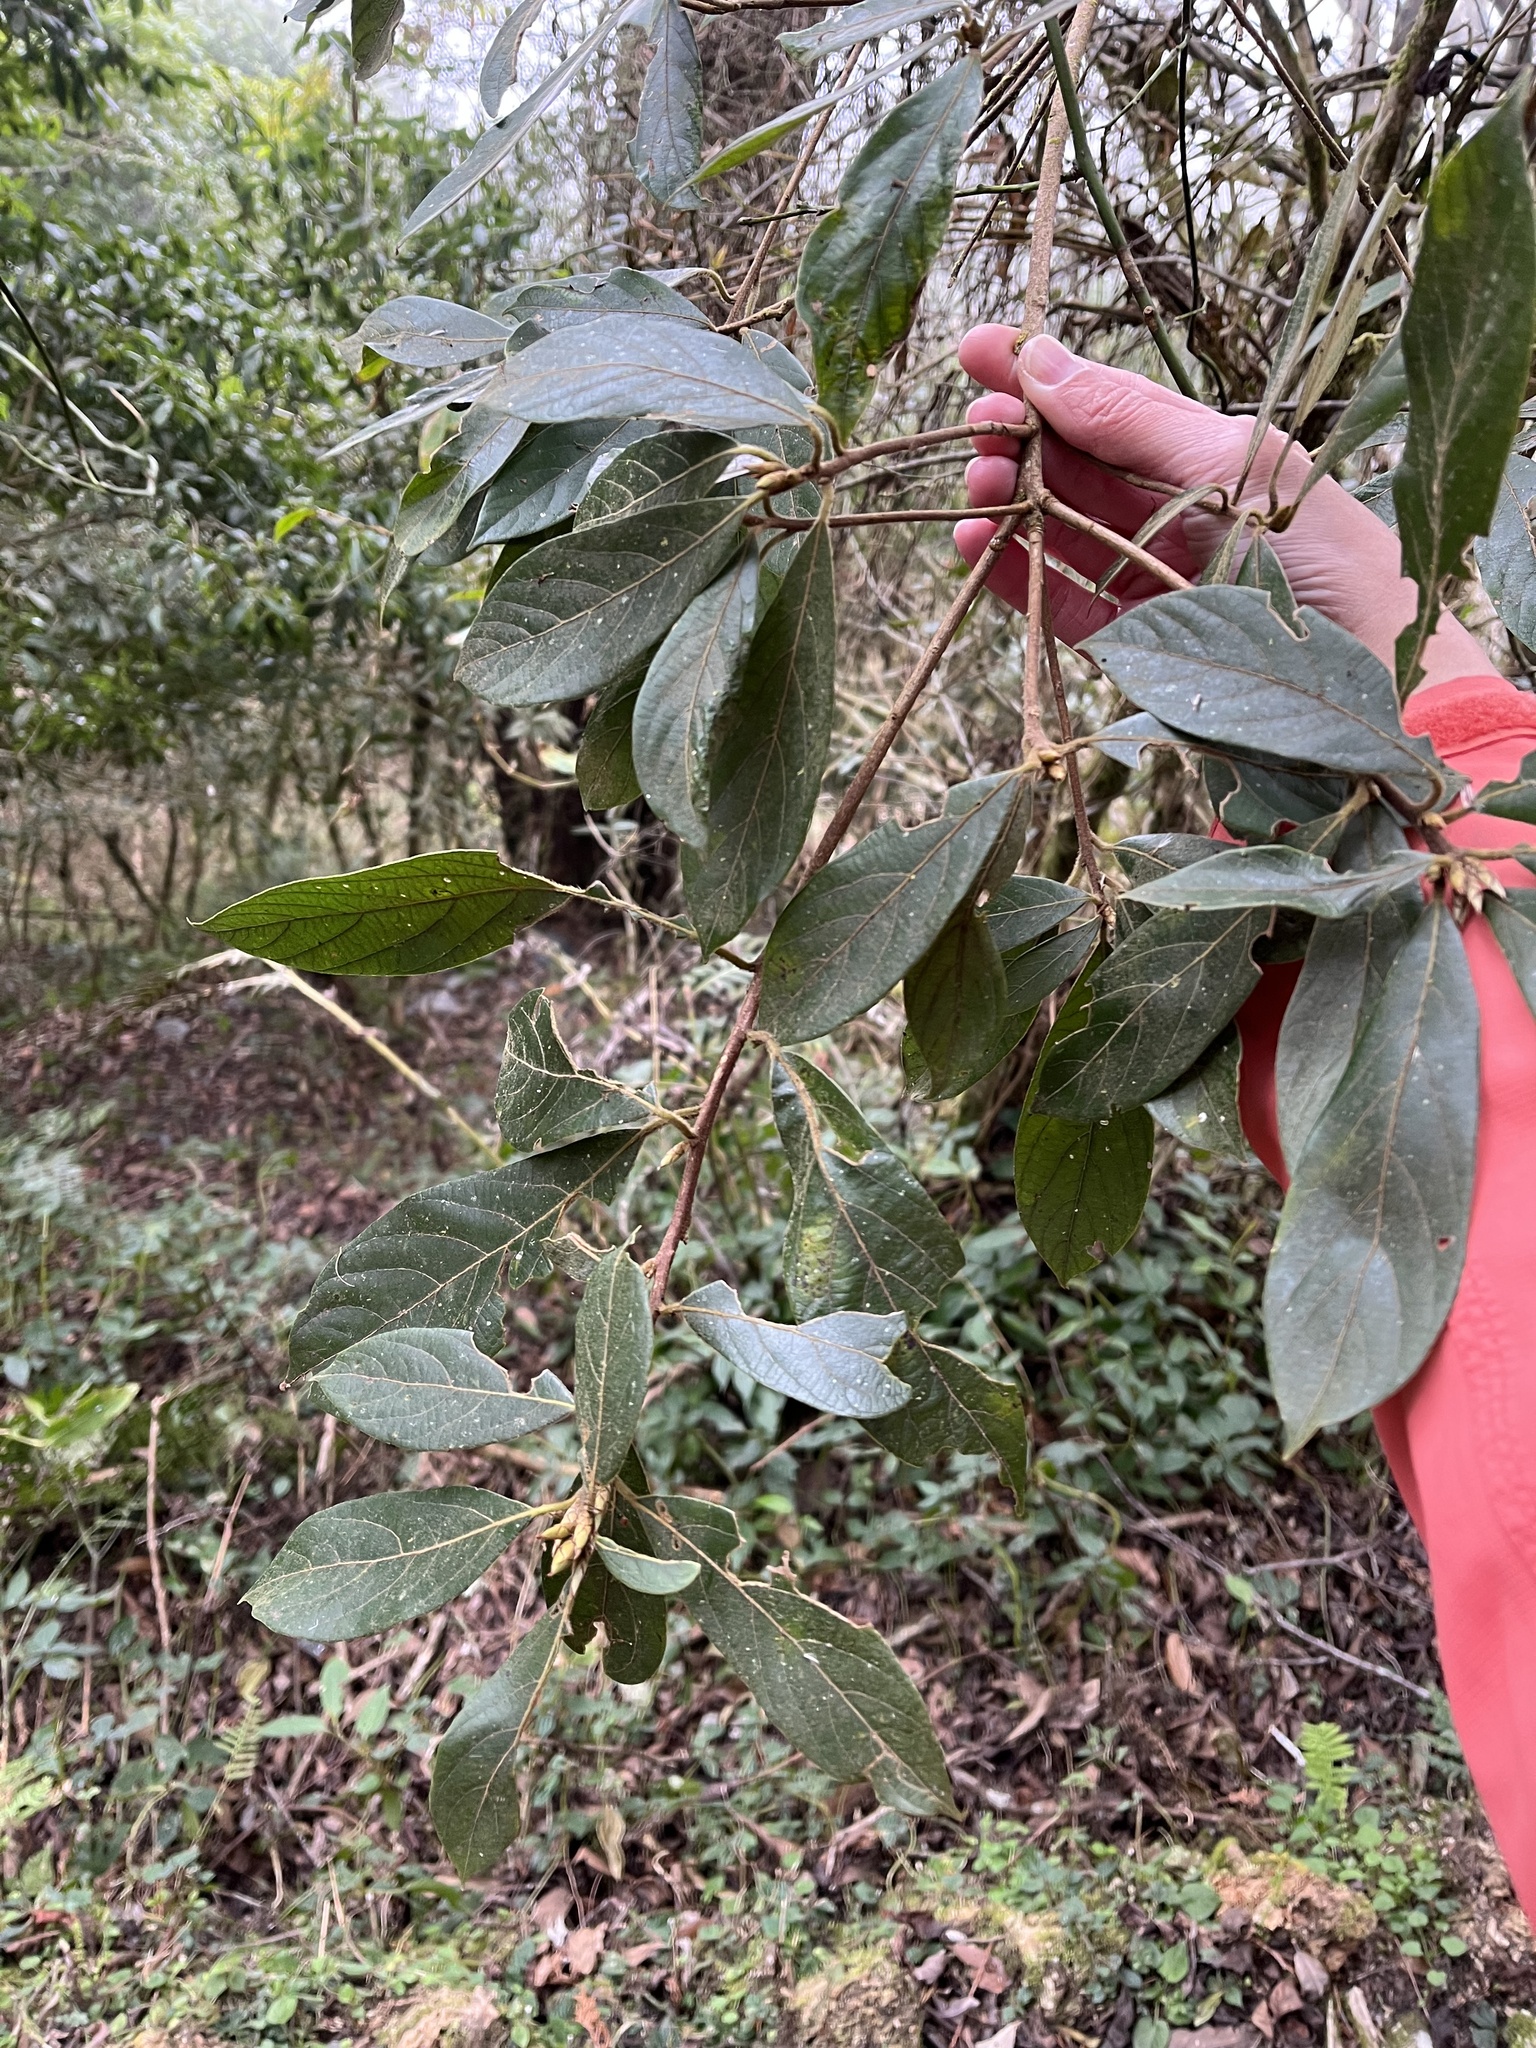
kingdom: Plantae
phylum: Tracheophyta
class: Magnoliopsida
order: Laurales
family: Lauraceae
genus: Actinodaphne
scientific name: Actinodaphne mushaensis
